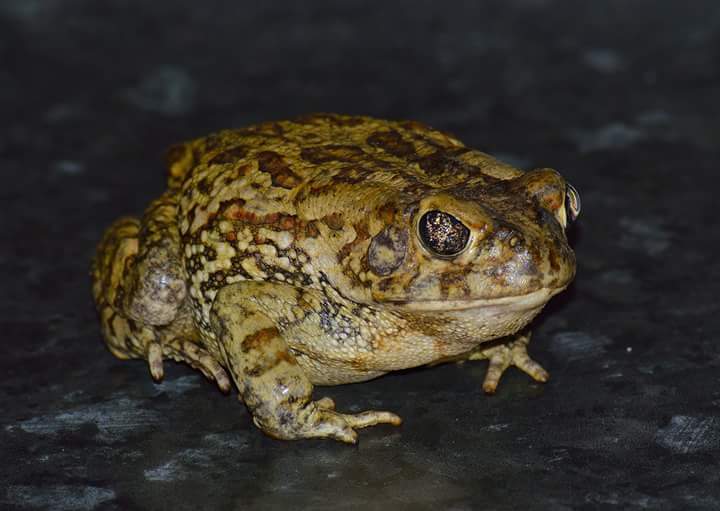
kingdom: Animalia
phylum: Chordata
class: Amphibia
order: Anura
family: Bufonidae
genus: Sclerophrys
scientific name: Sclerophrys garmani
